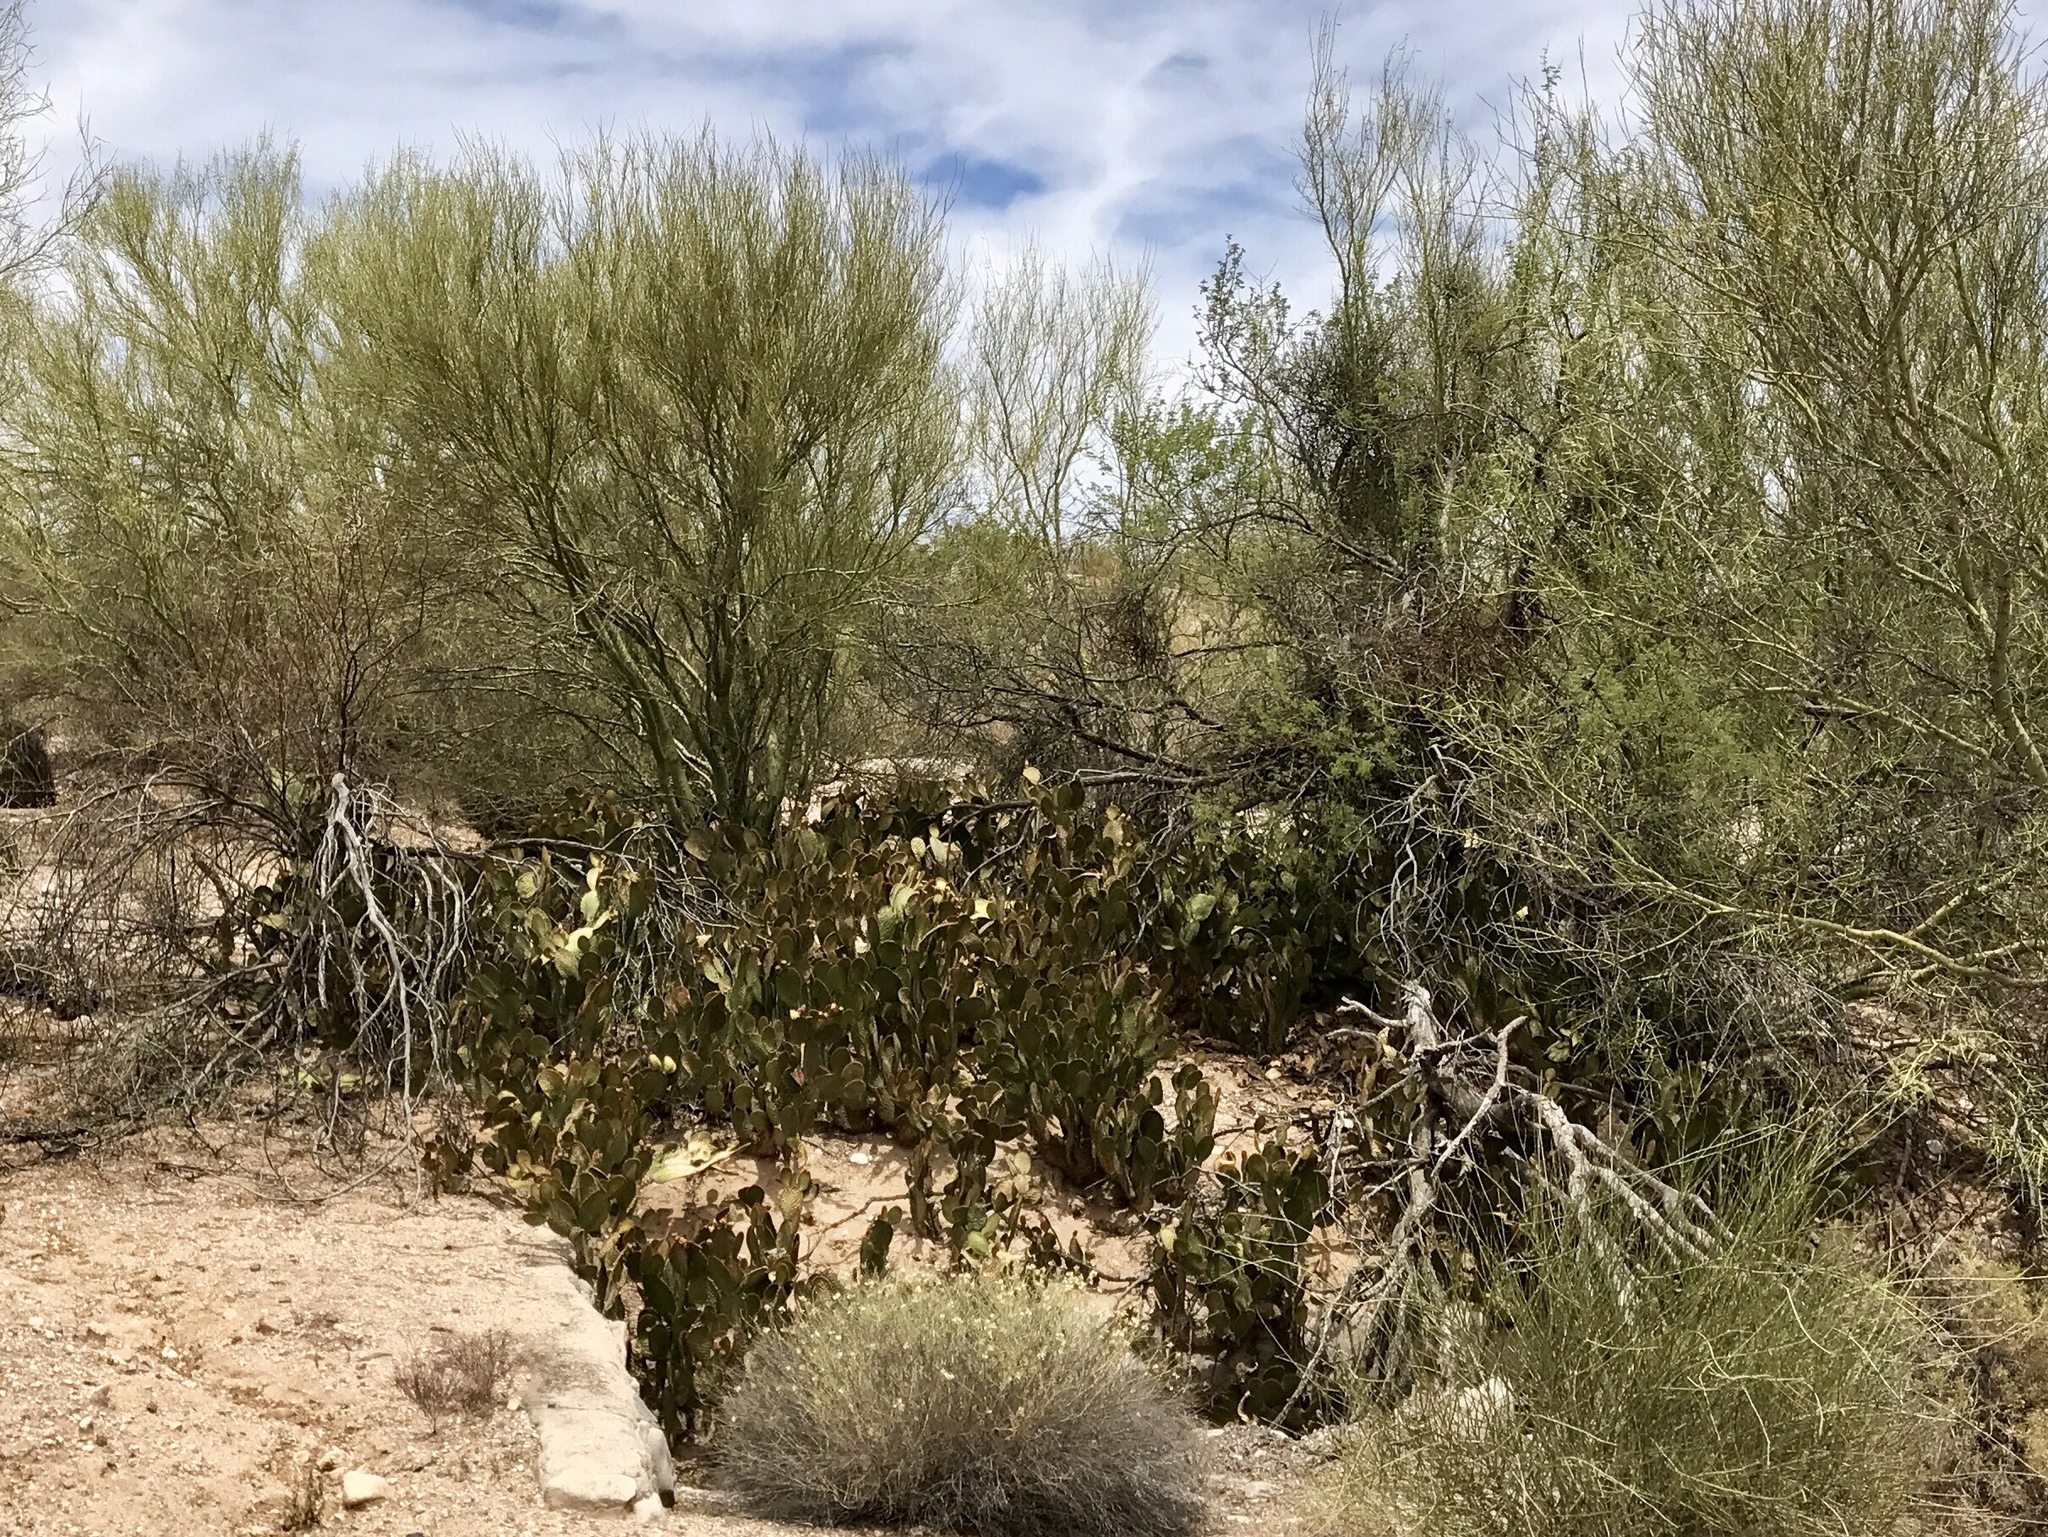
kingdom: Plantae
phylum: Tracheophyta
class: Magnoliopsida
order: Caryophyllales
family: Cactaceae
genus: Opuntia
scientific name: Opuntia microdasys
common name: Angel's-wings
